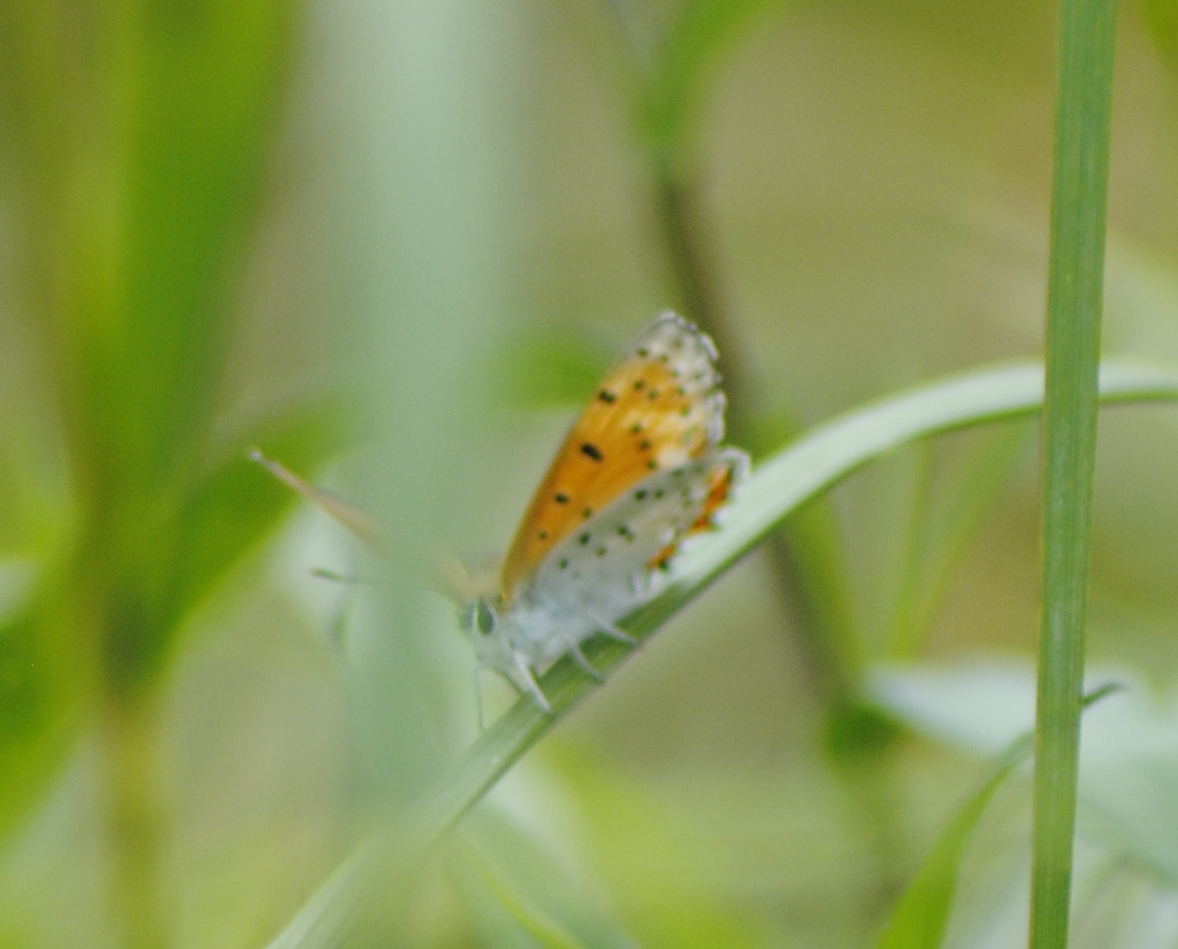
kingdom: Animalia
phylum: Arthropoda
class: Insecta
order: Lepidoptera
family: Lycaenidae
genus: Tharsalea
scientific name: Tharsalea hyllus
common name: Bronze copper
